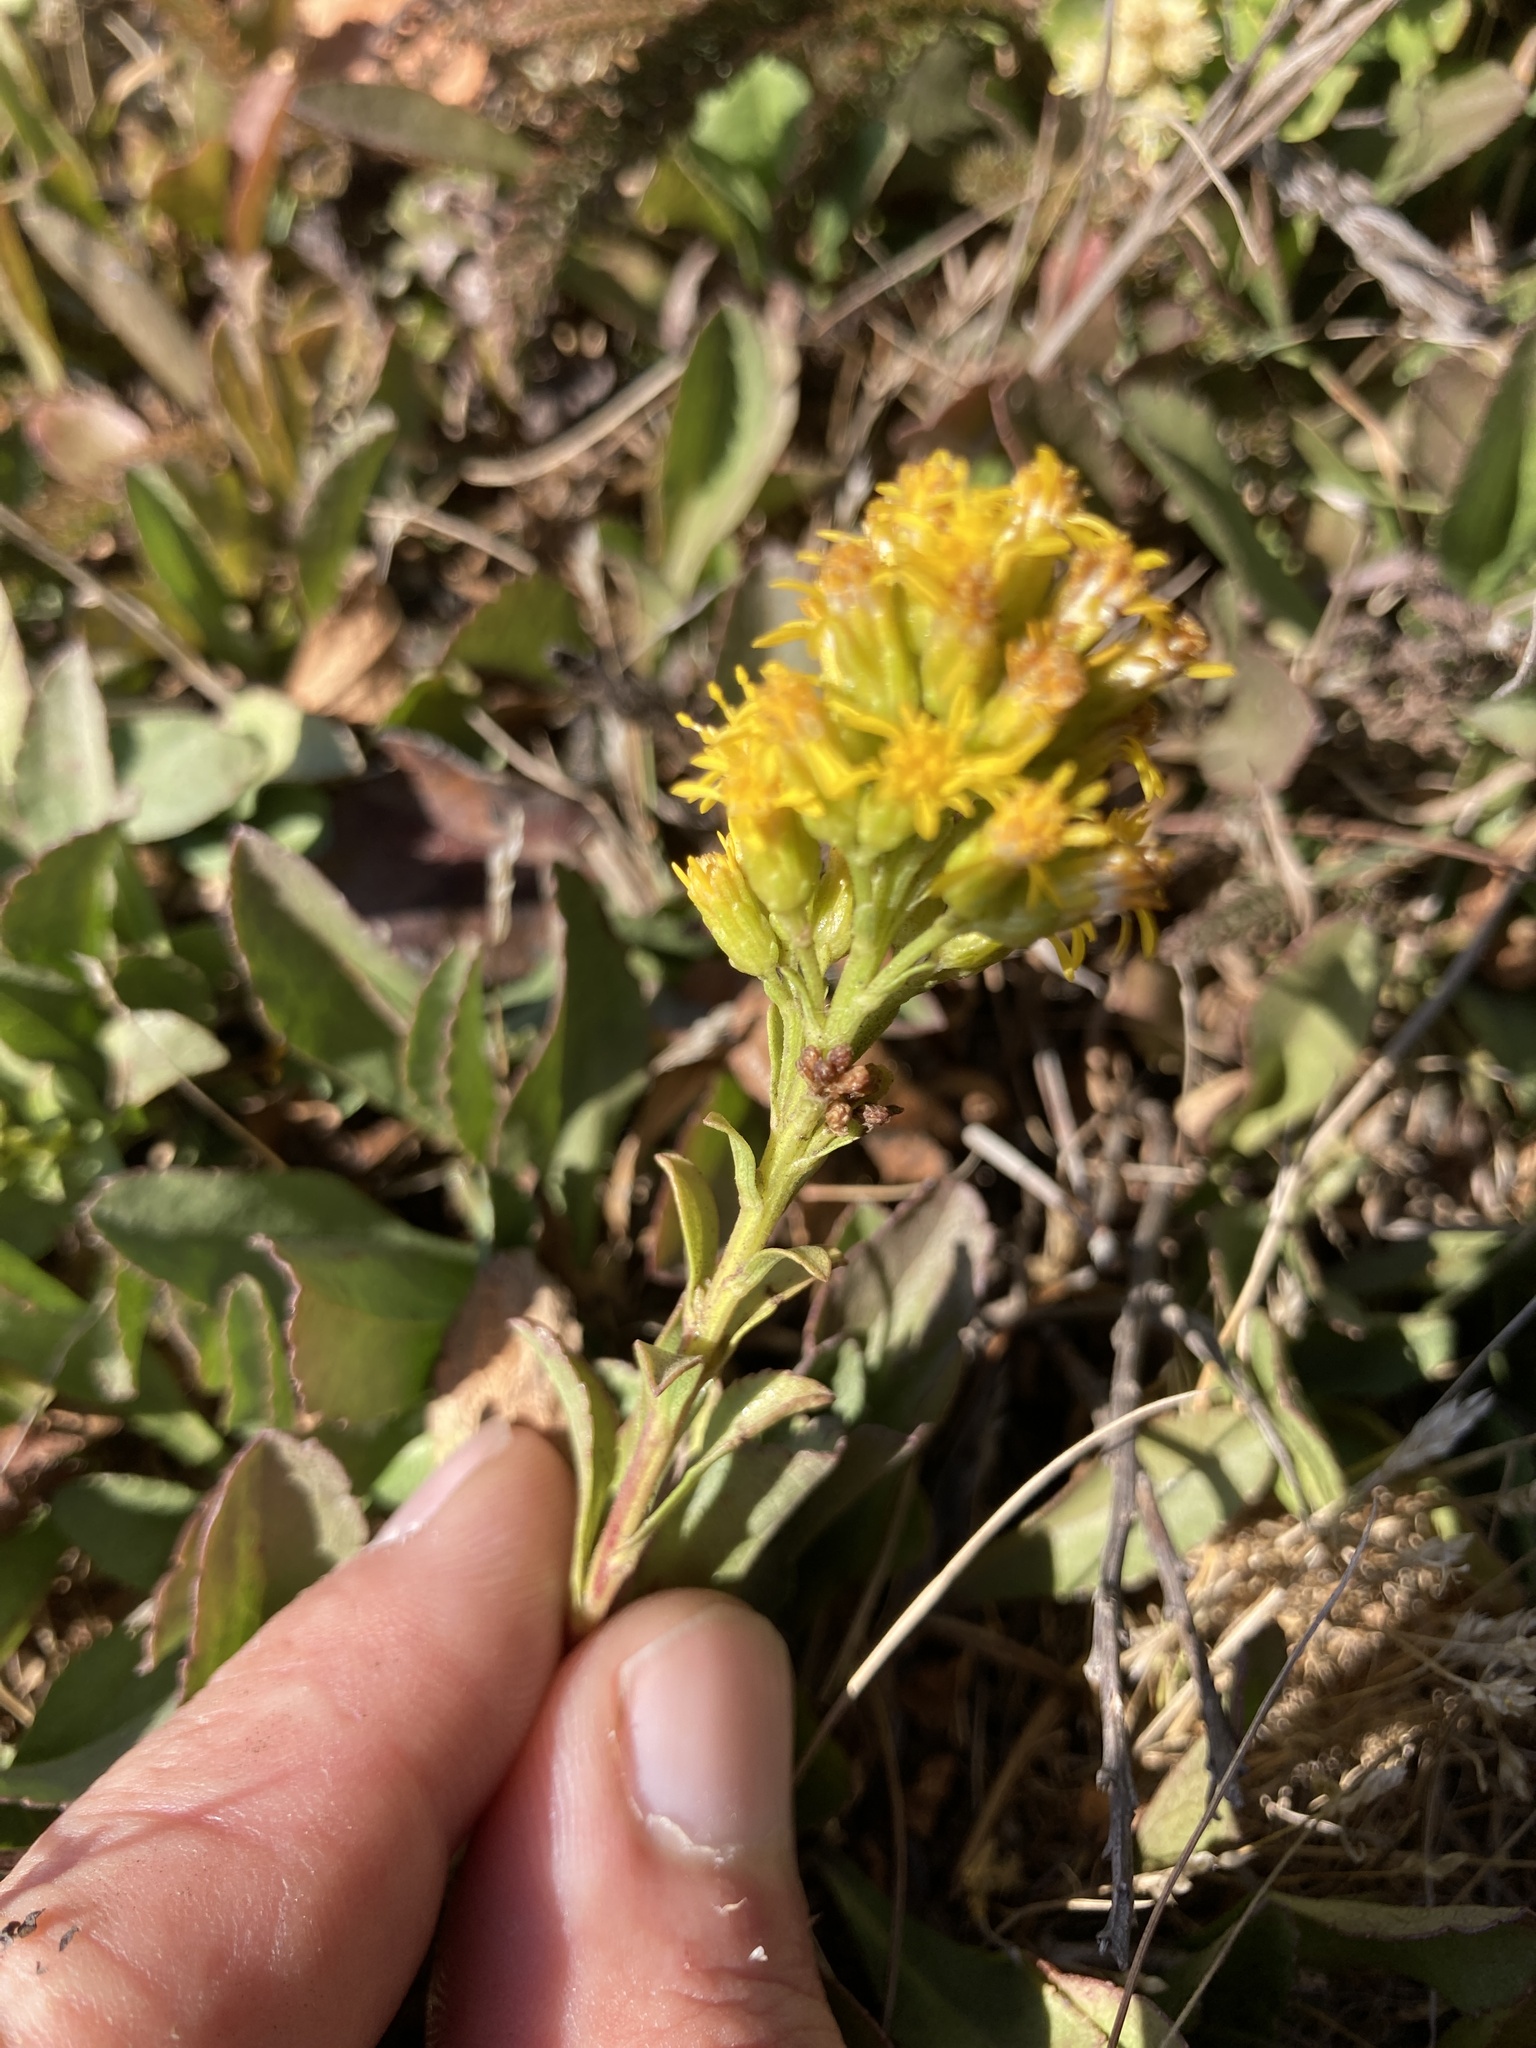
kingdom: Plantae
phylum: Tracheophyta
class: Magnoliopsida
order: Asterales
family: Asteraceae
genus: Solidago
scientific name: Solidago spathulata
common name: Coast goldenrod
